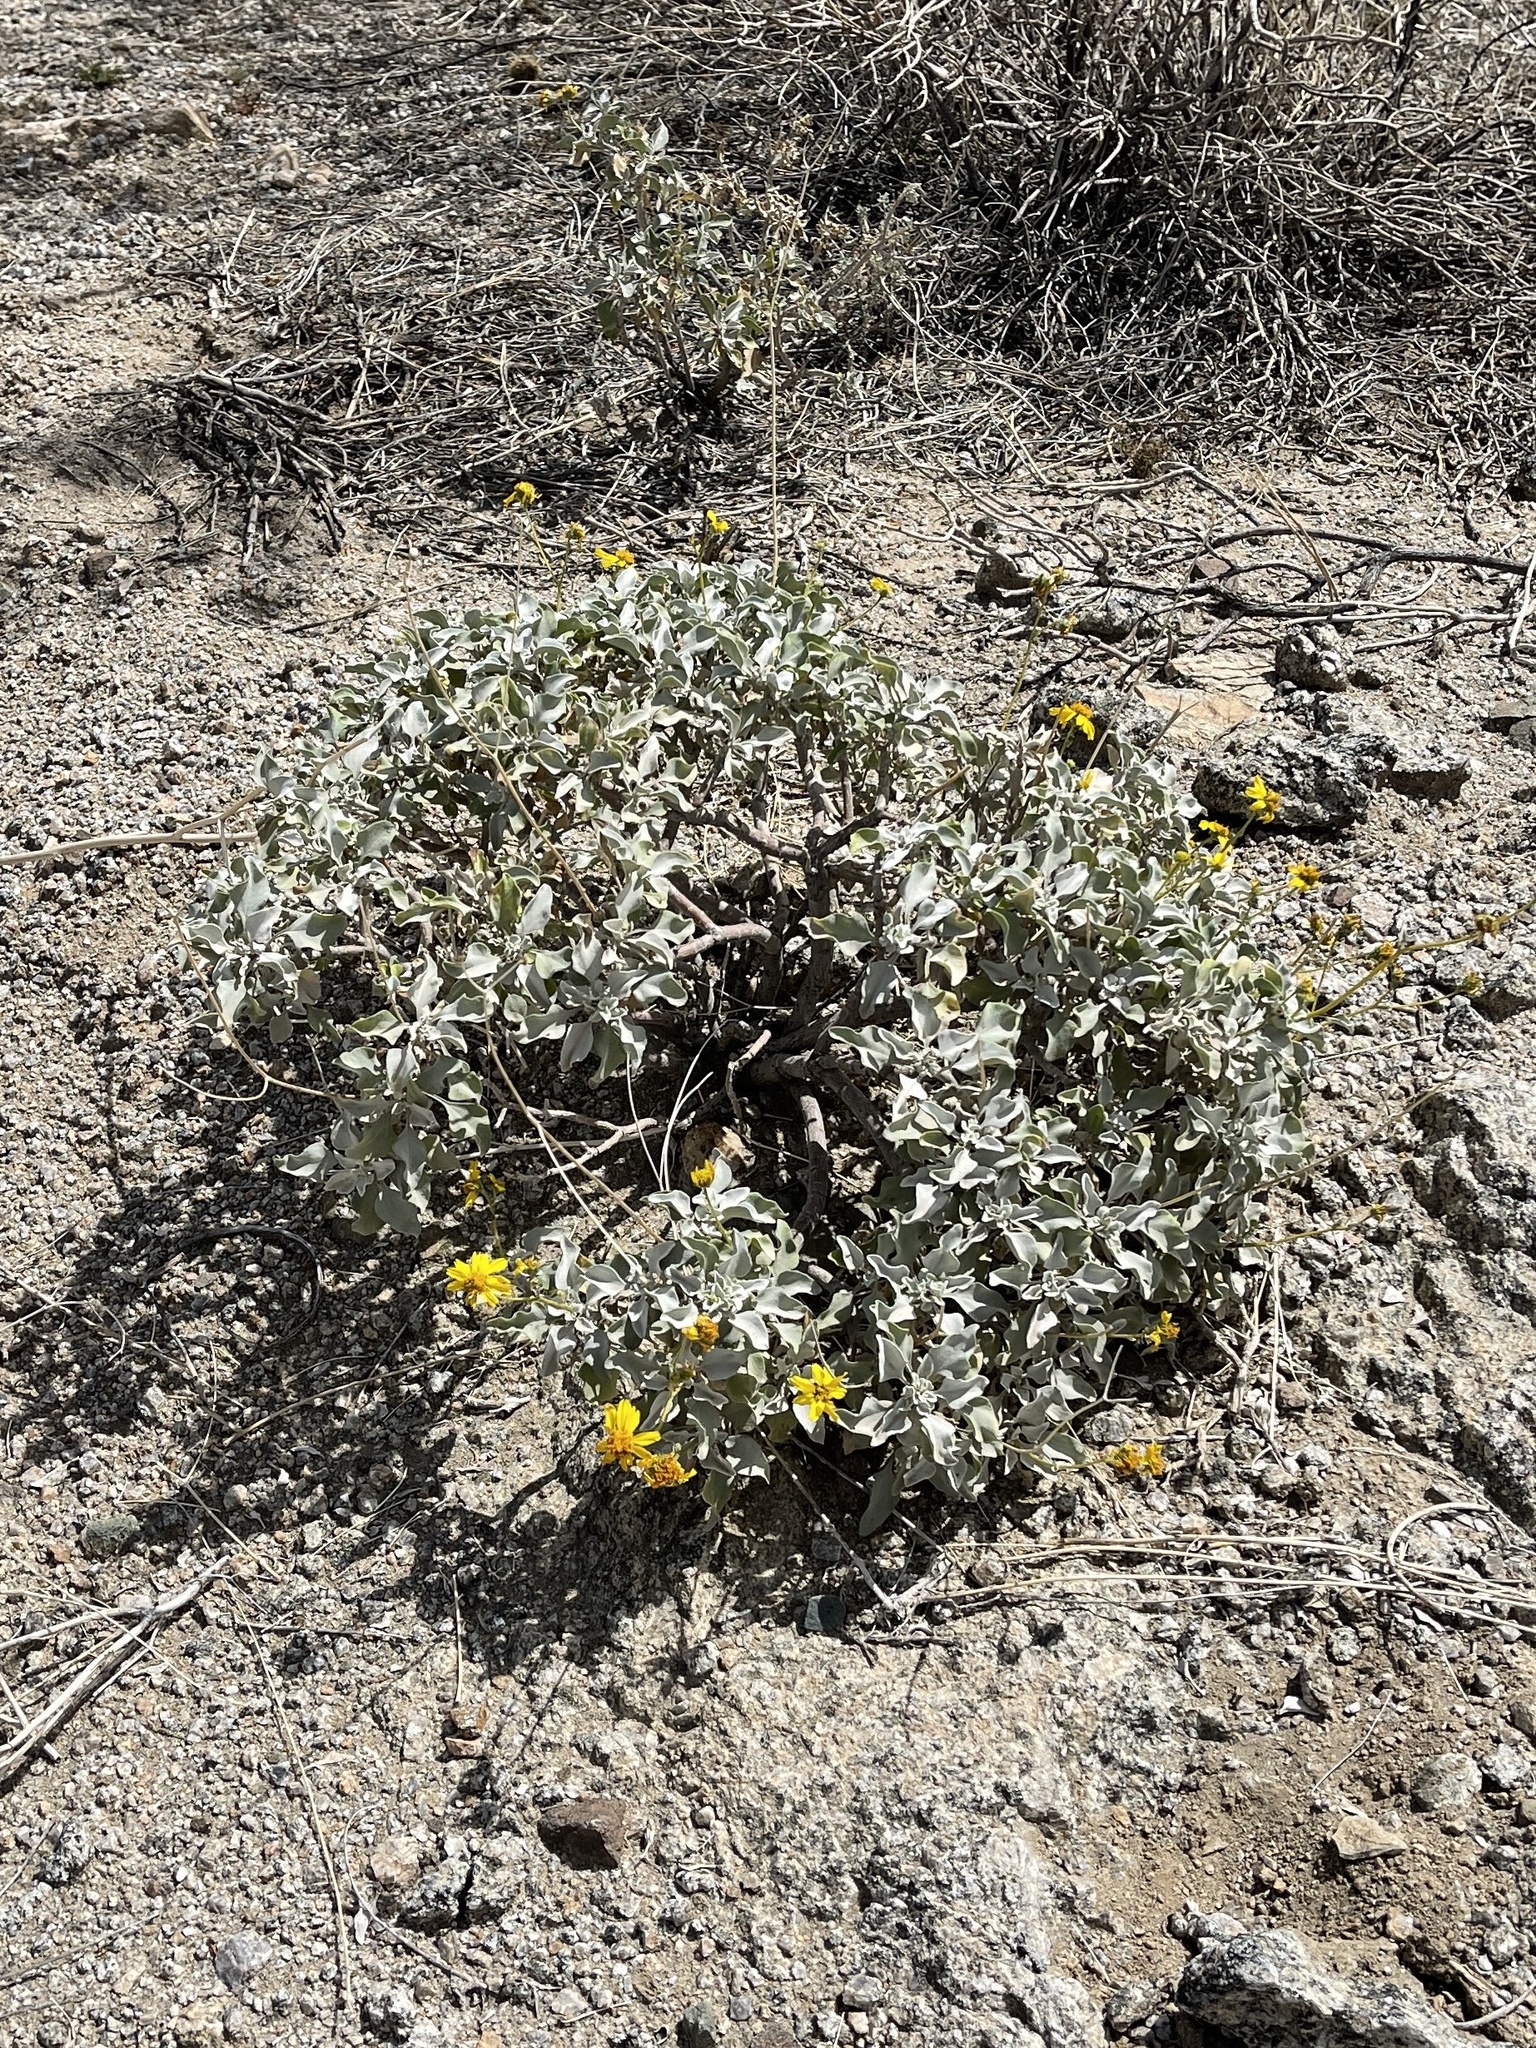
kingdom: Plantae
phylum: Tracheophyta
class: Magnoliopsida
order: Asterales
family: Asteraceae
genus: Encelia
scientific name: Encelia farinosa
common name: Brittlebush
